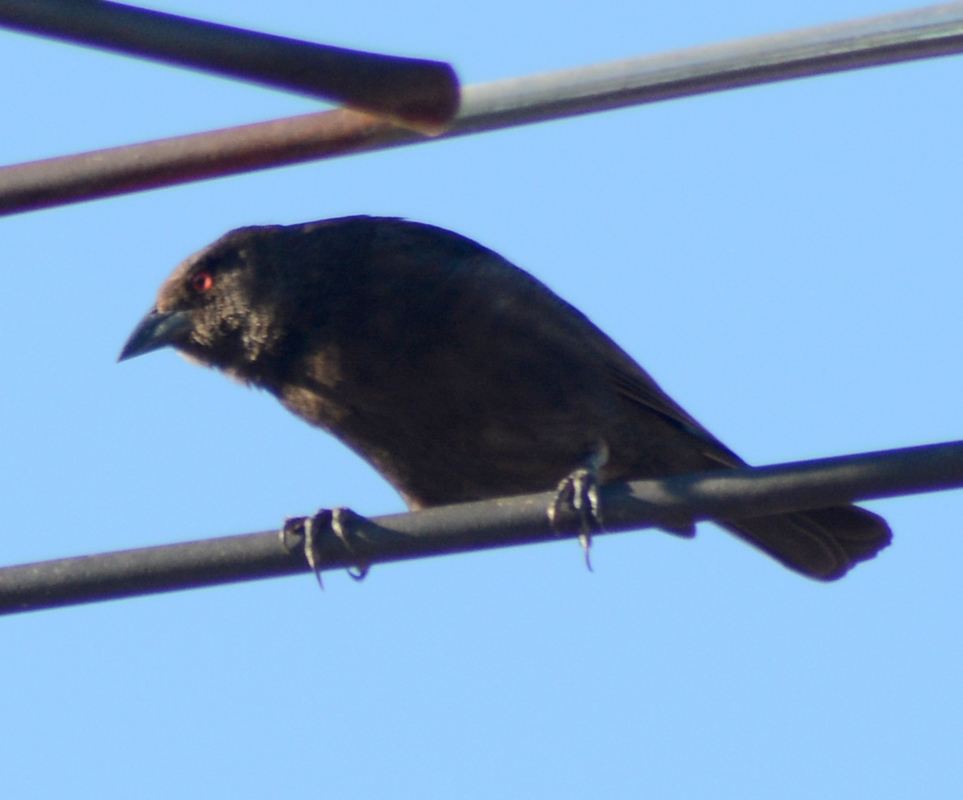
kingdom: Animalia
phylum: Chordata
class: Aves
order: Passeriformes
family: Icteridae
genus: Molothrus
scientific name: Molothrus aeneus
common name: Bronzed cowbird
